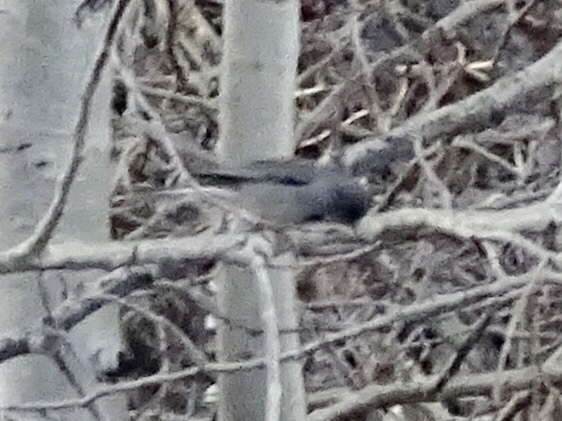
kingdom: Animalia
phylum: Chordata
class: Aves
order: Passeriformes
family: Passerellidae
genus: Junco
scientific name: Junco hyemalis
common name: Dark-eyed junco
